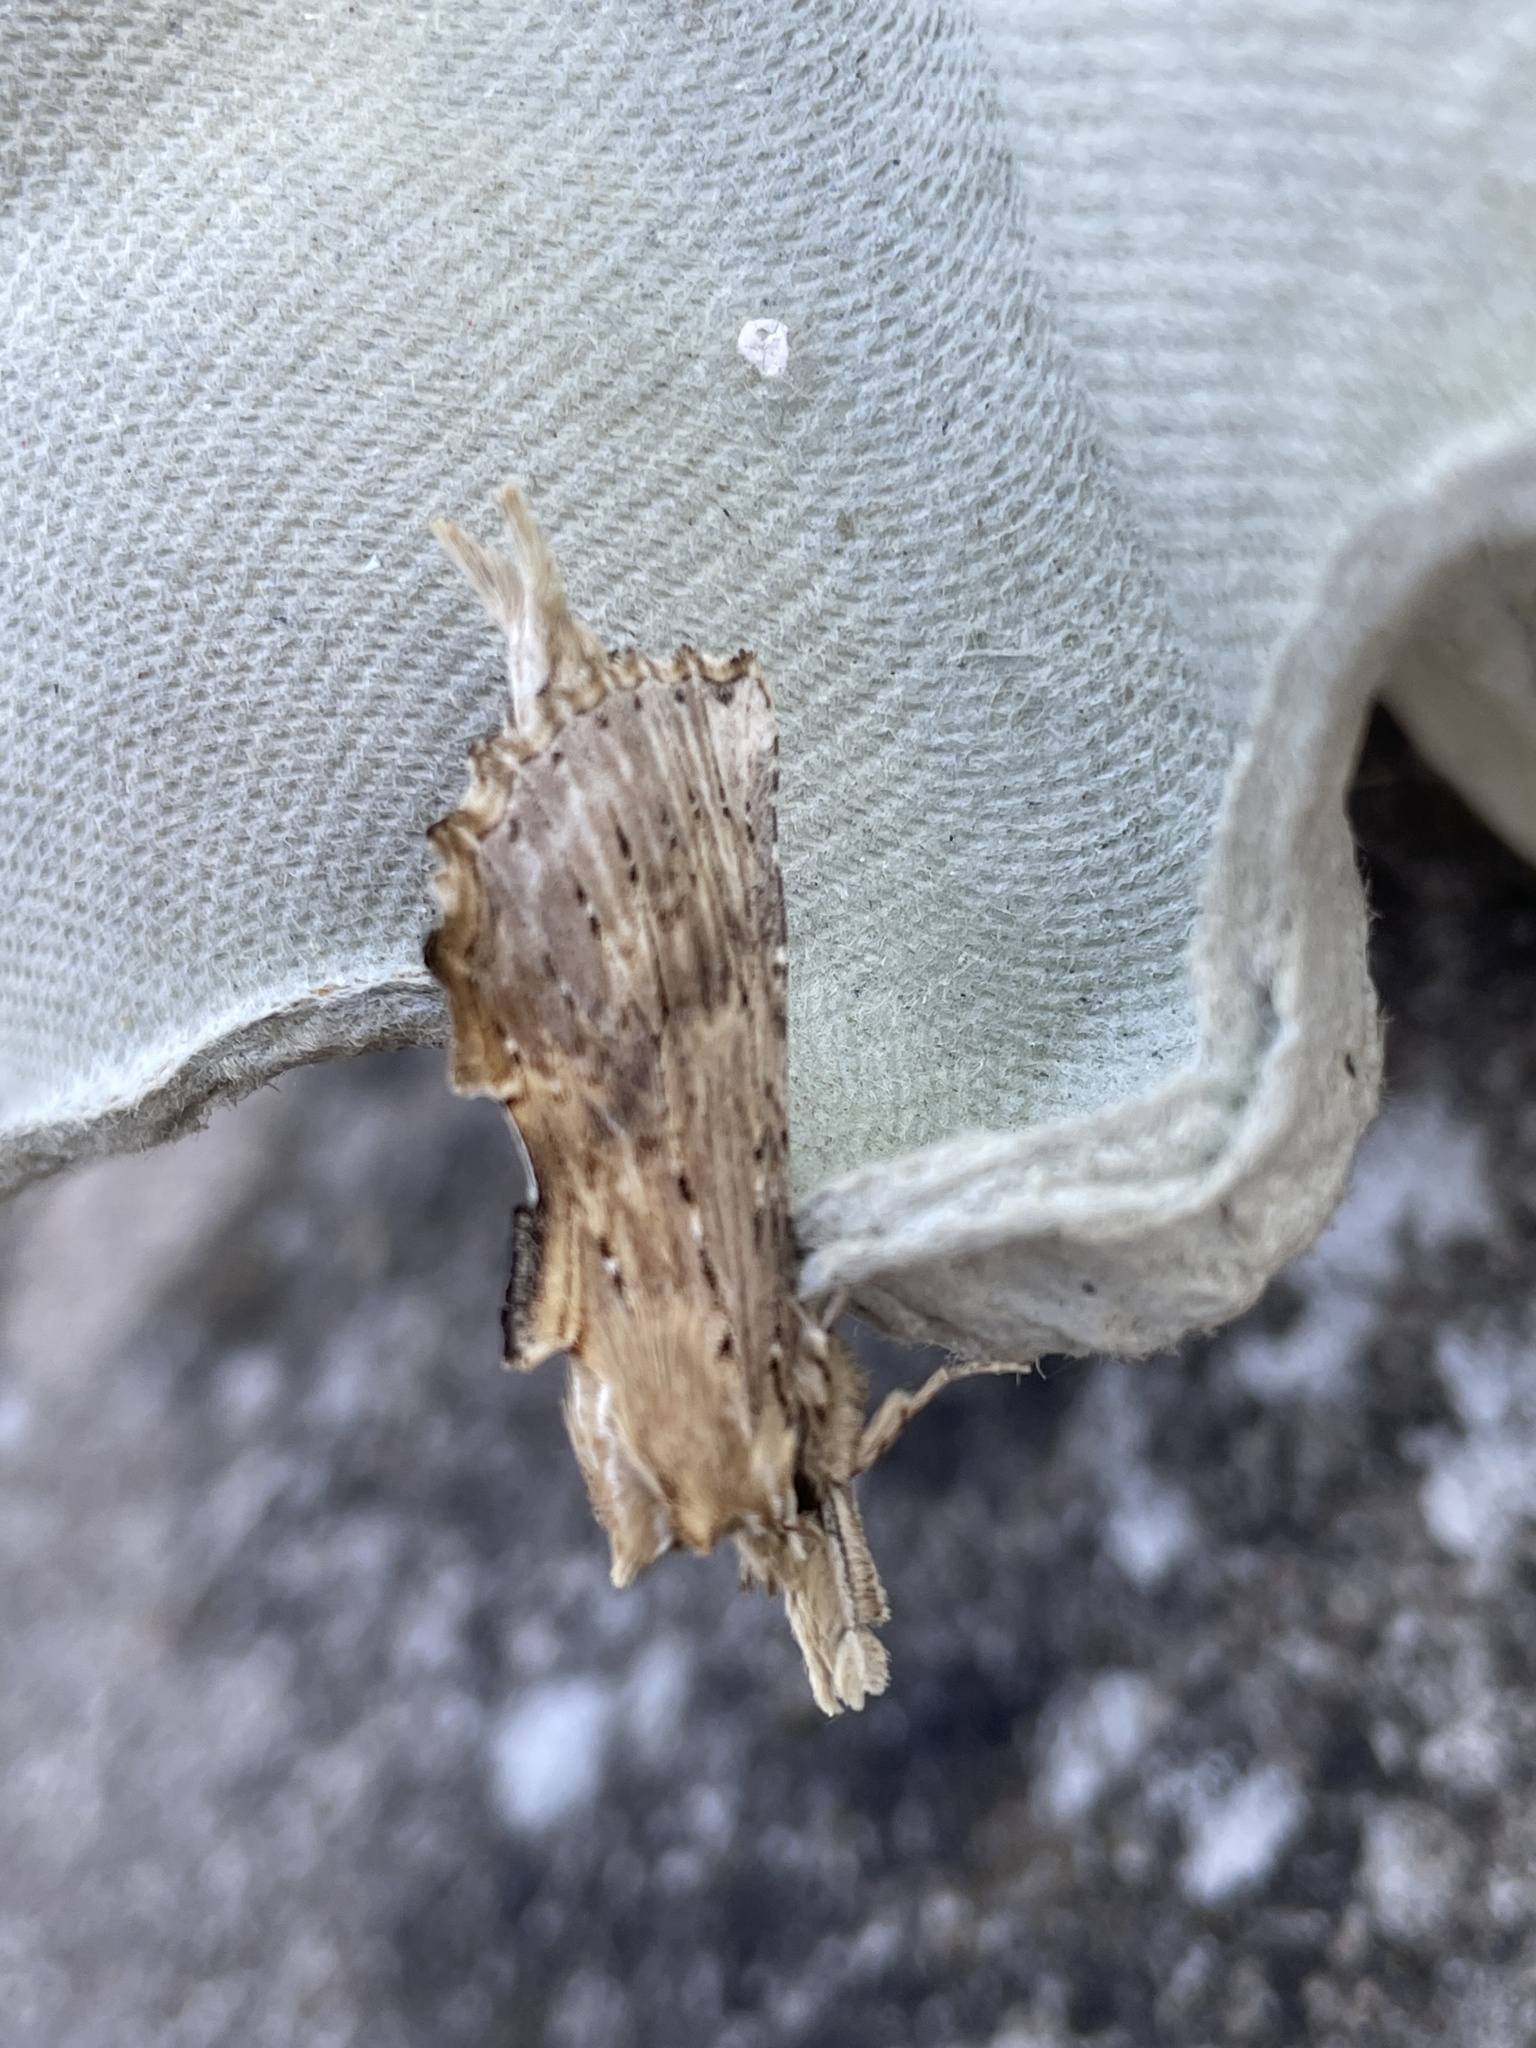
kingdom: Animalia
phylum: Arthropoda
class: Insecta
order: Lepidoptera
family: Notodontidae
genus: Pterostoma
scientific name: Pterostoma palpina
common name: Pale prominent
